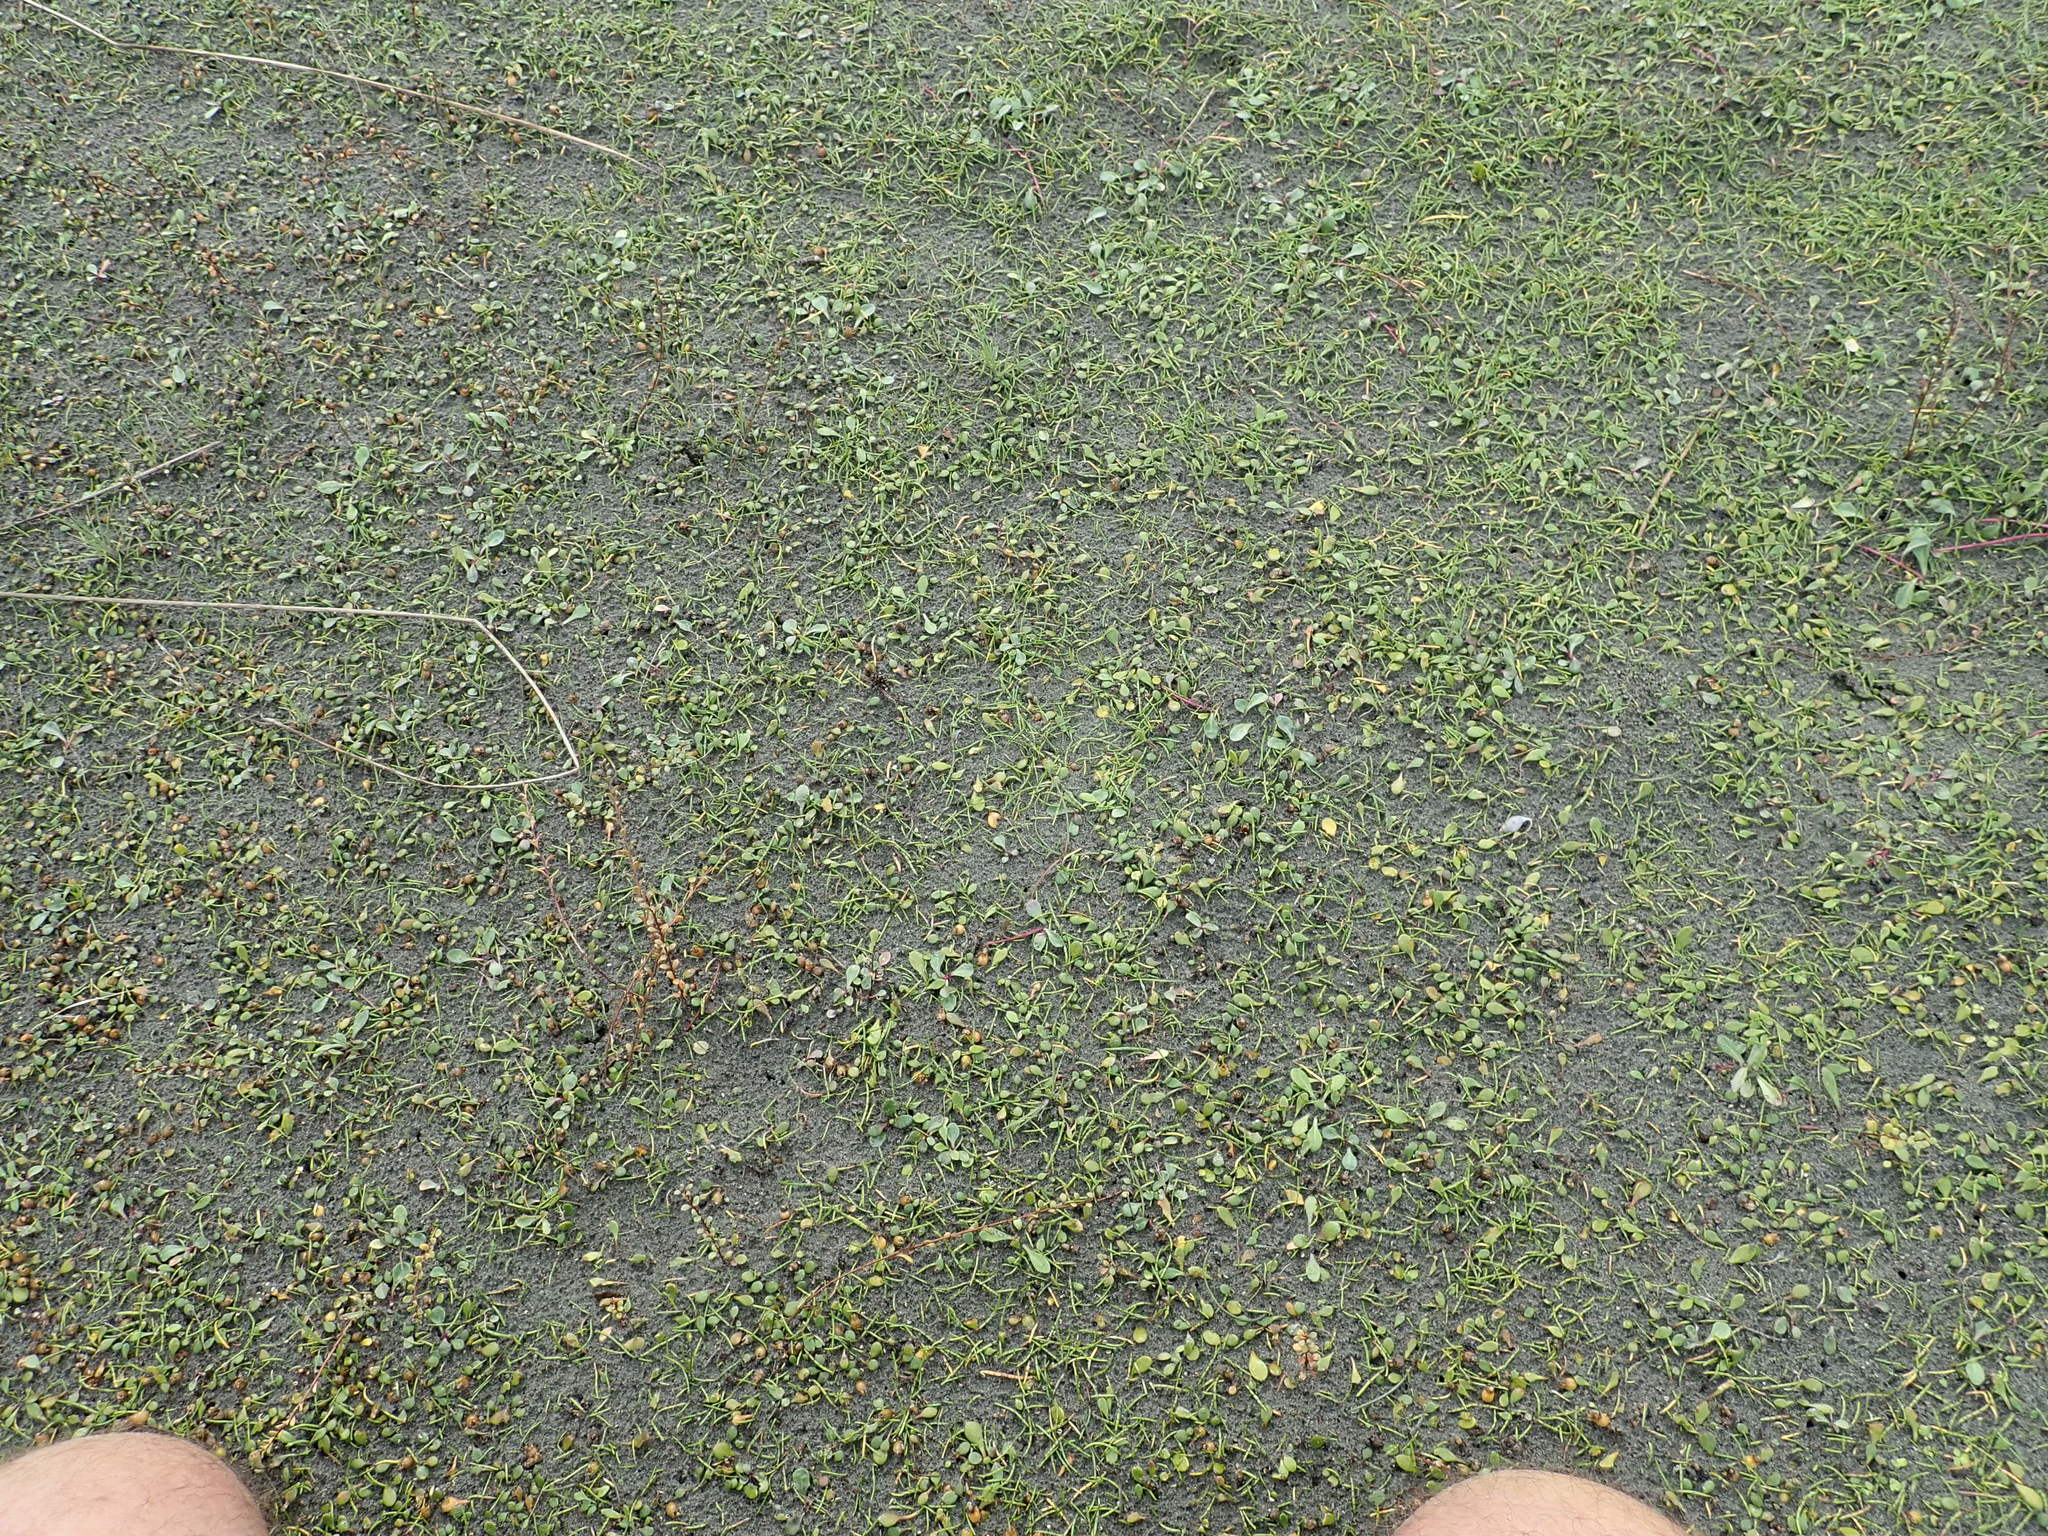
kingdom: Plantae
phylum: Tracheophyta
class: Magnoliopsida
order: Apiales
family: Apiaceae
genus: Lilaeopsis
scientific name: Lilaeopsis novae-zelandiae
